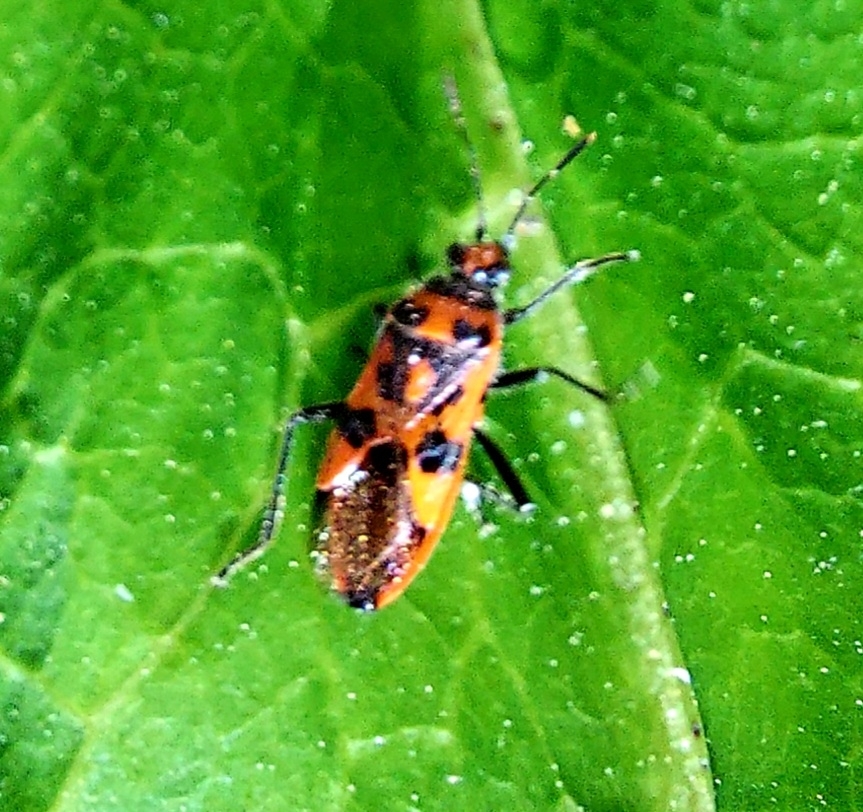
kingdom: Animalia
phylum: Arthropoda
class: Insecta
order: Hemiptera
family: Rhopalidae
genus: Corizus
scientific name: Corizus hyoscyami
